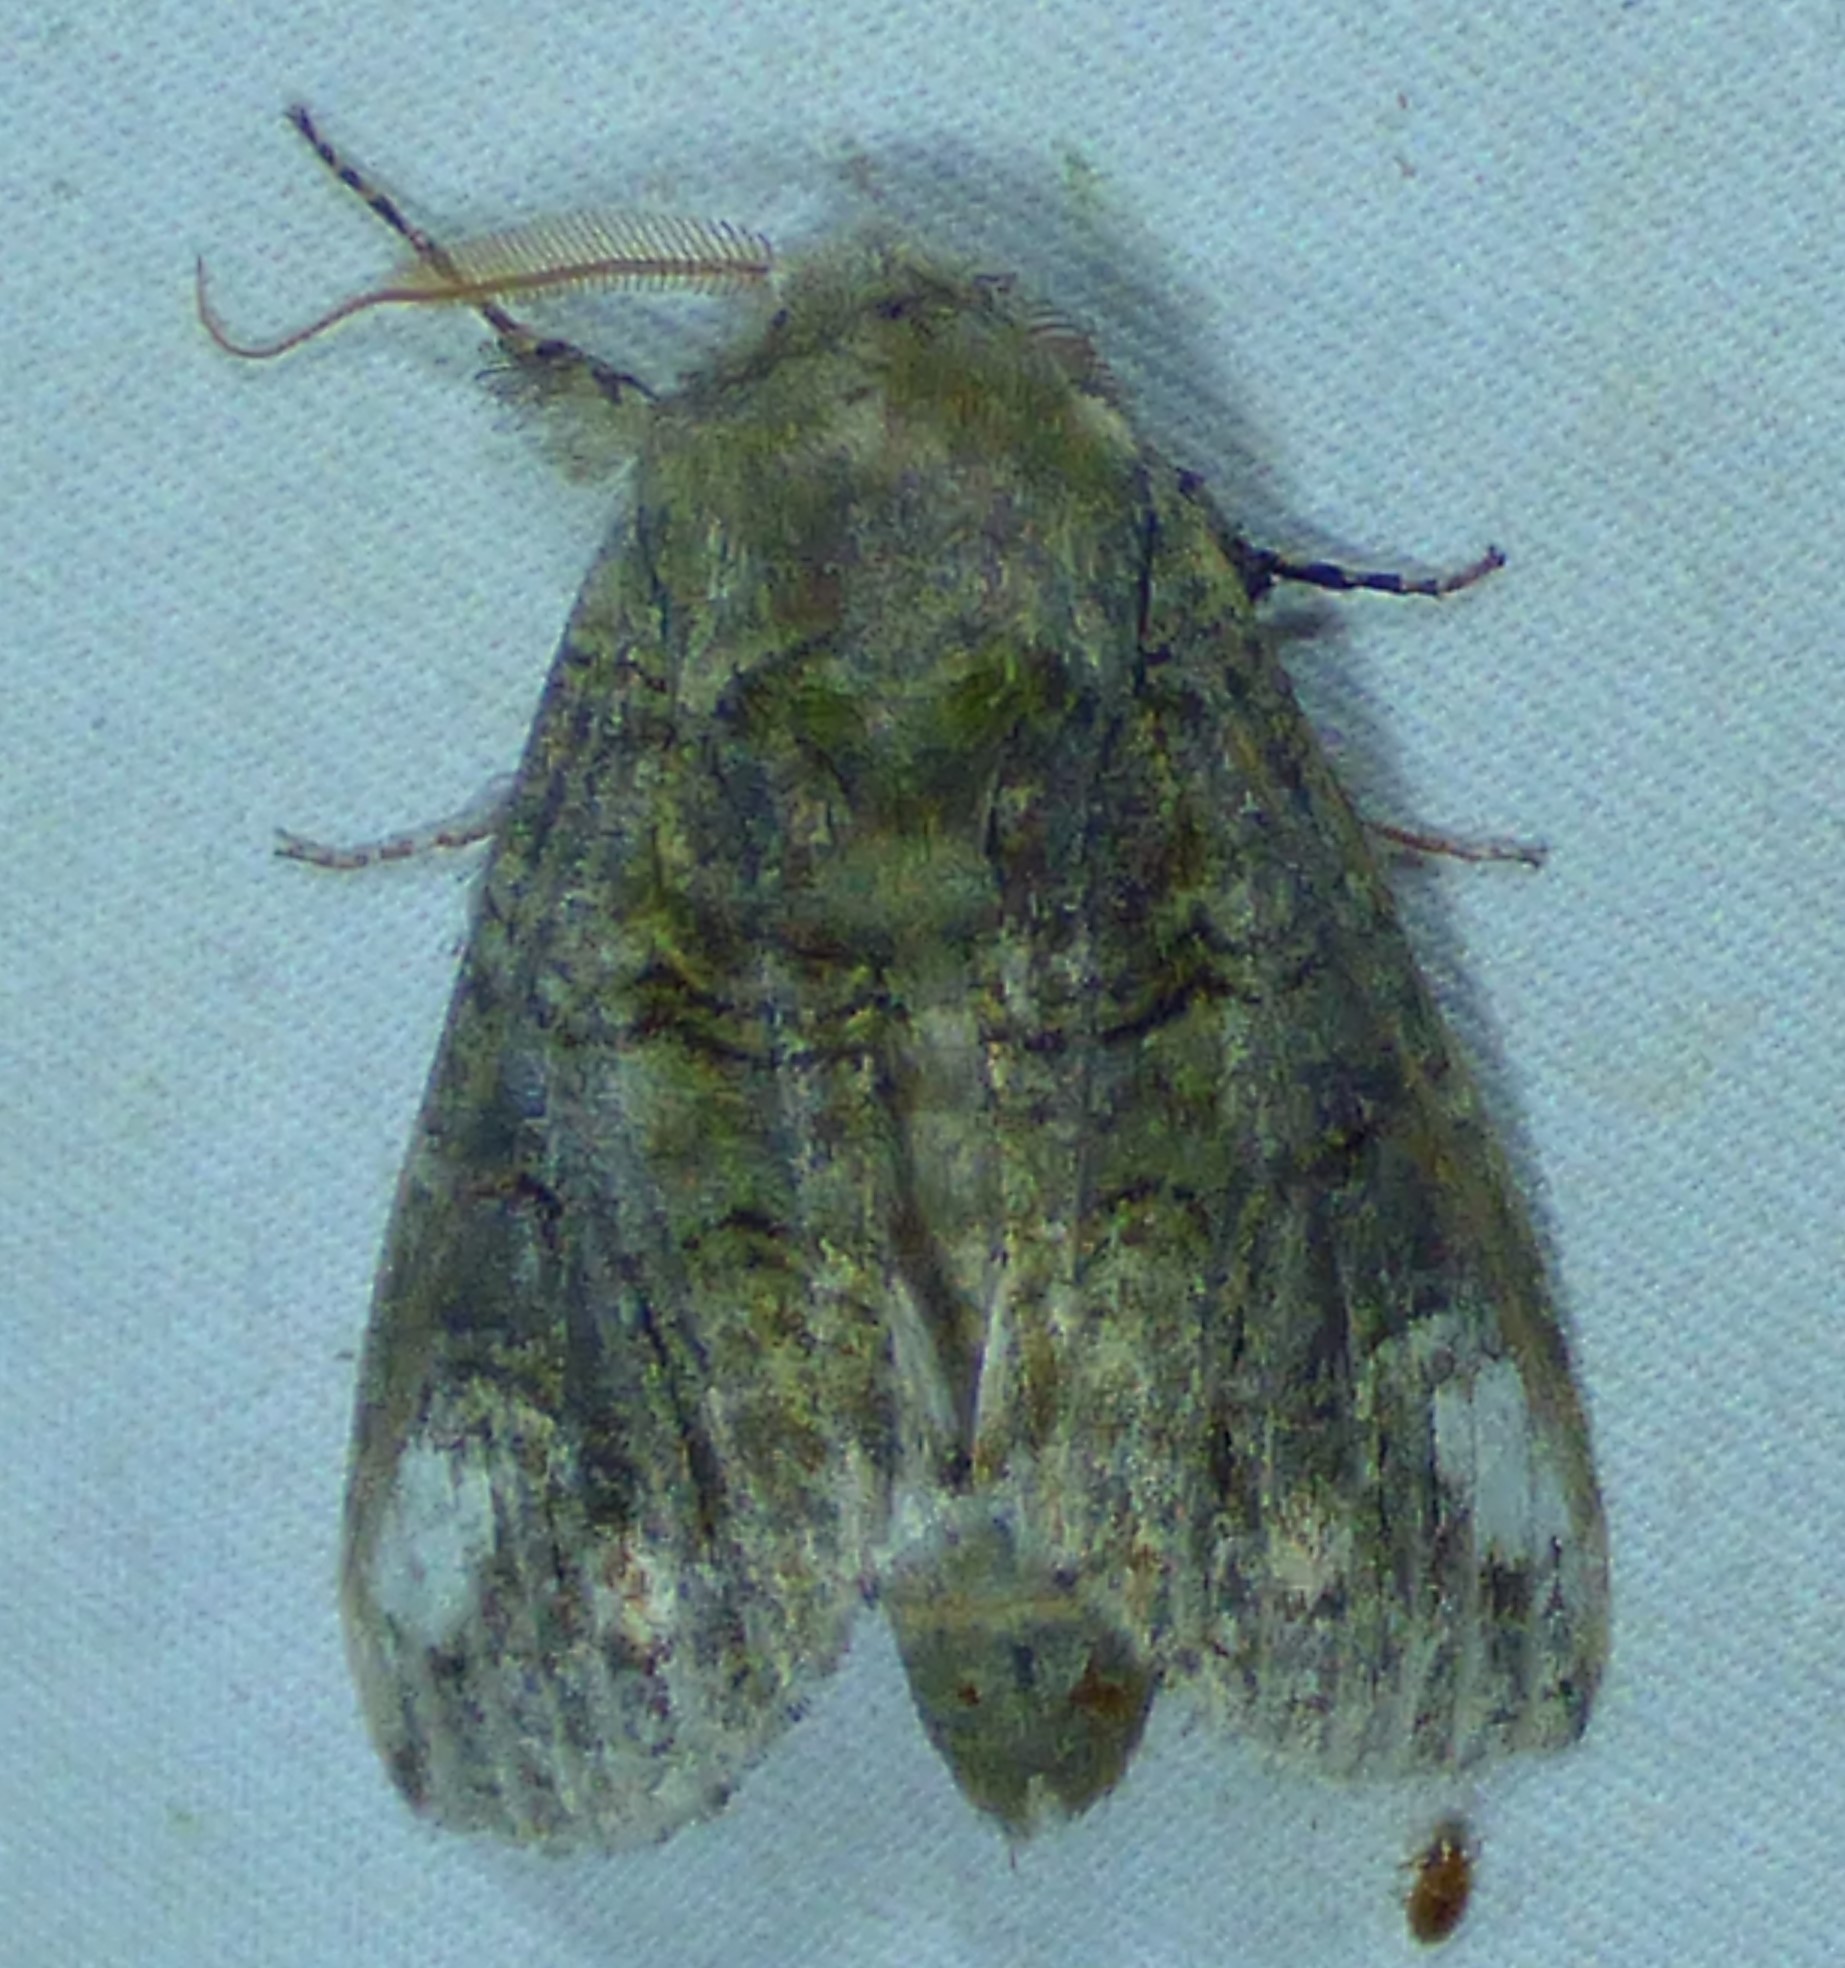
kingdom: Animalia
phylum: Arthropoda
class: Insecta
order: Lepidoptera
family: Notodontidae
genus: Heterocampa
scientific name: Heterocampa obliqua
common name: Oblique heterocampa
